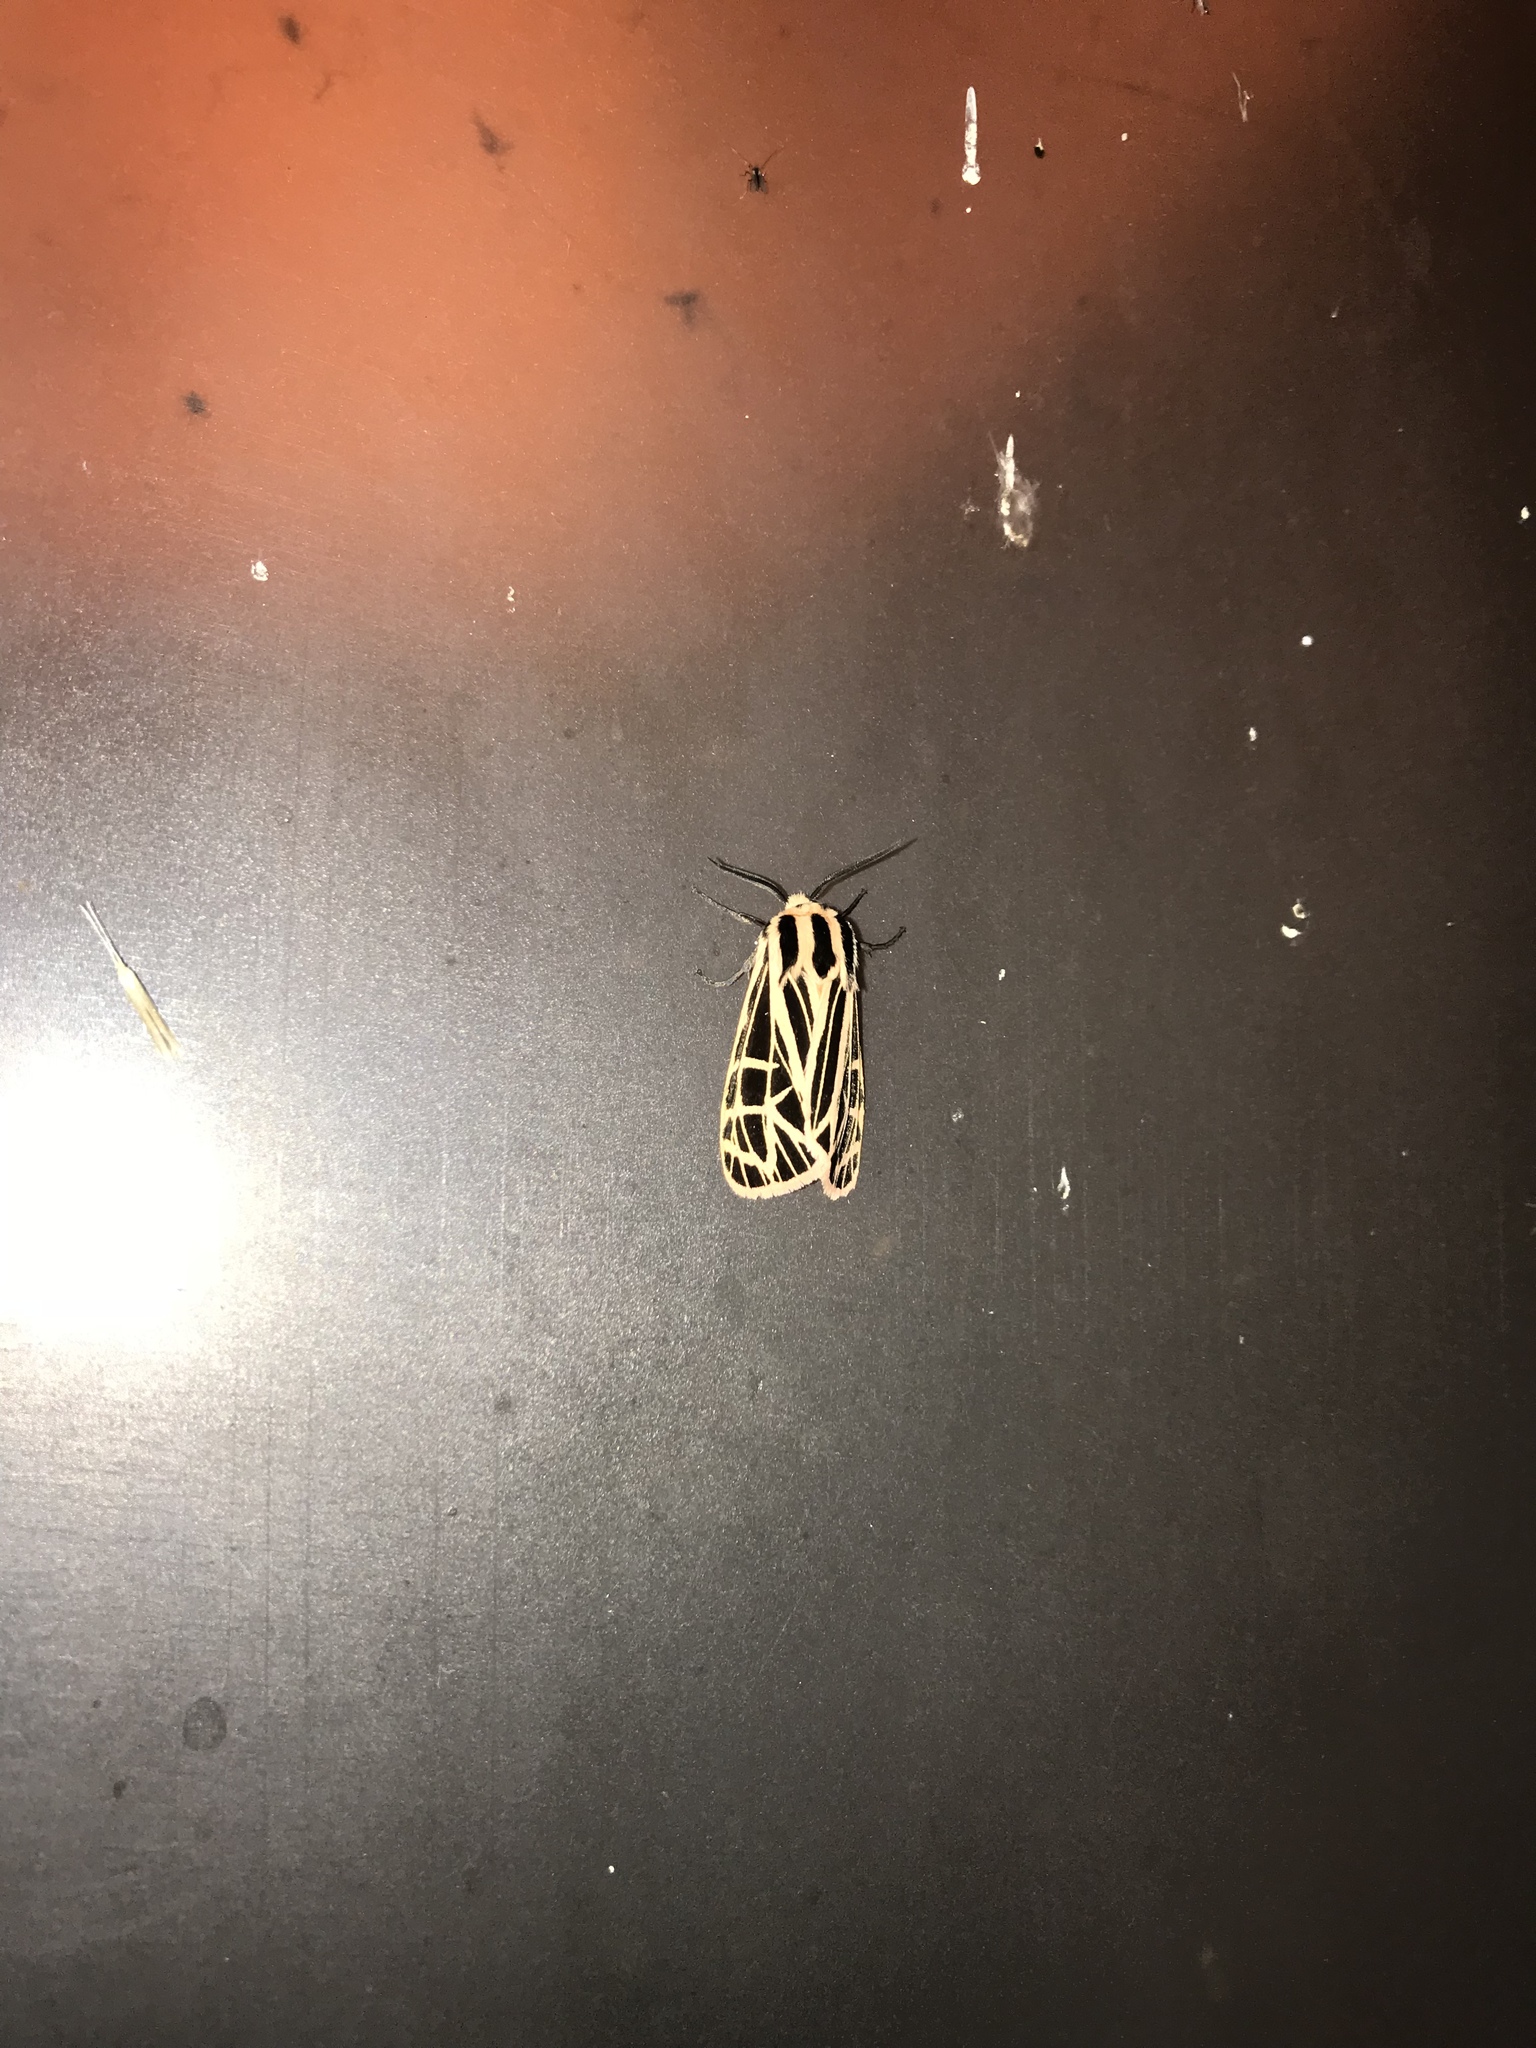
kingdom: Animalia
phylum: Arthropoda
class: Insecta
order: Lepidoptera
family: Erebidae
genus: Grammia
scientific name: Grammia parthenice
